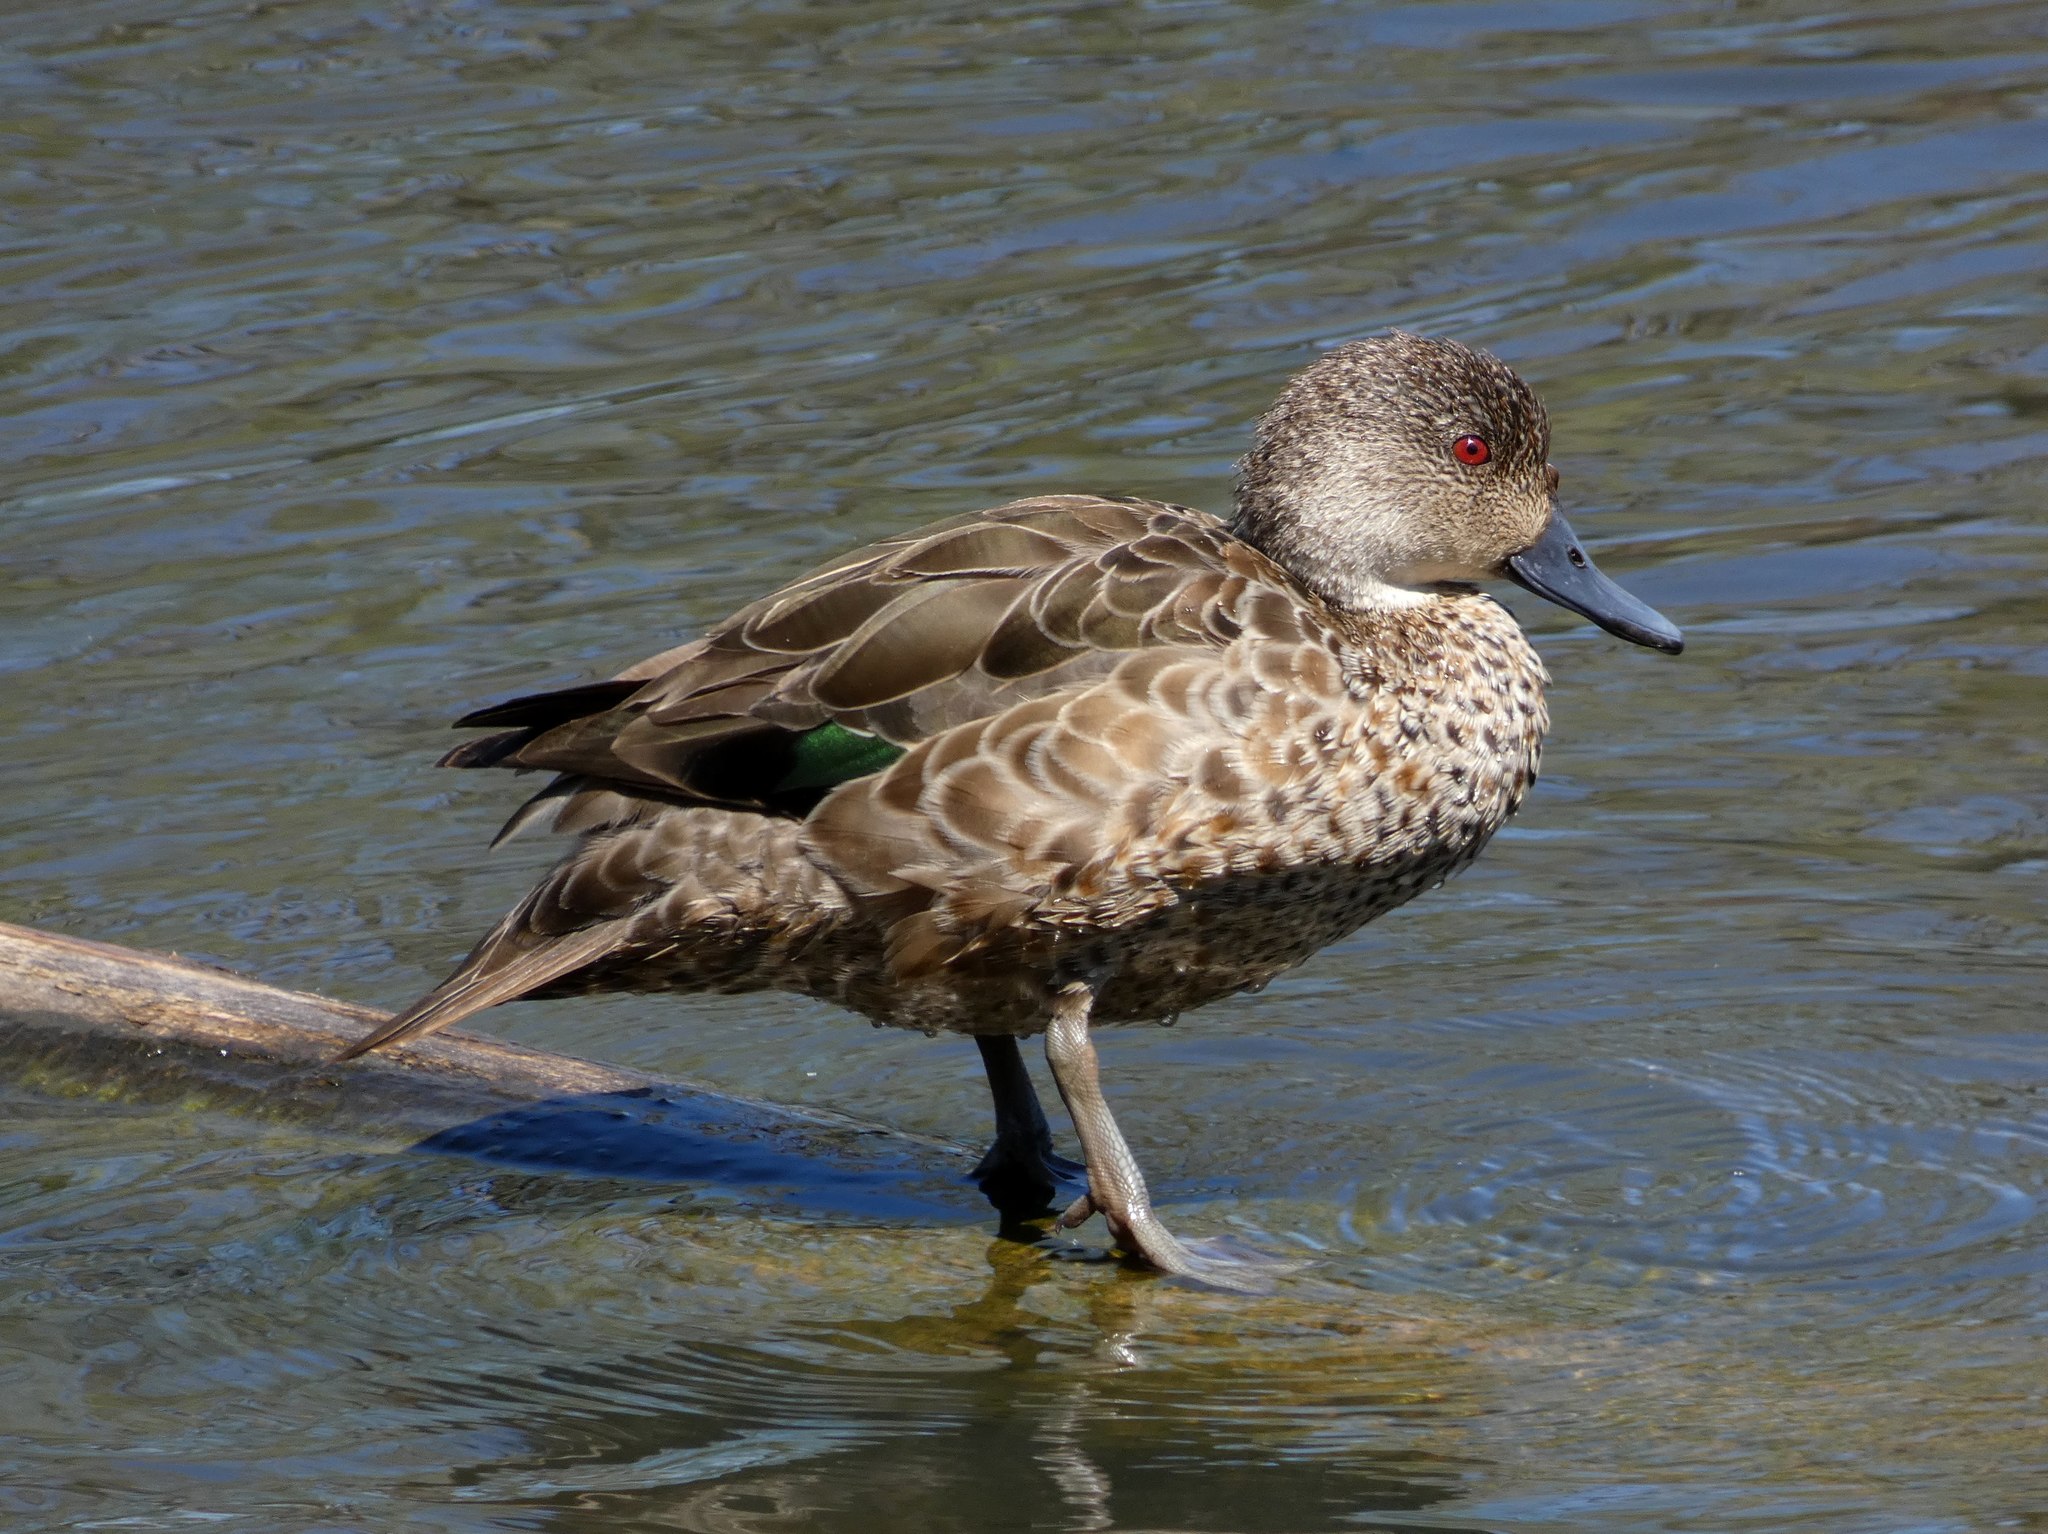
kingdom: Animalia
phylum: Chordata
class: Aves
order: Anseriformes
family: Anatidae
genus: Anas
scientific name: Anas gracilis
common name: Grey teal
